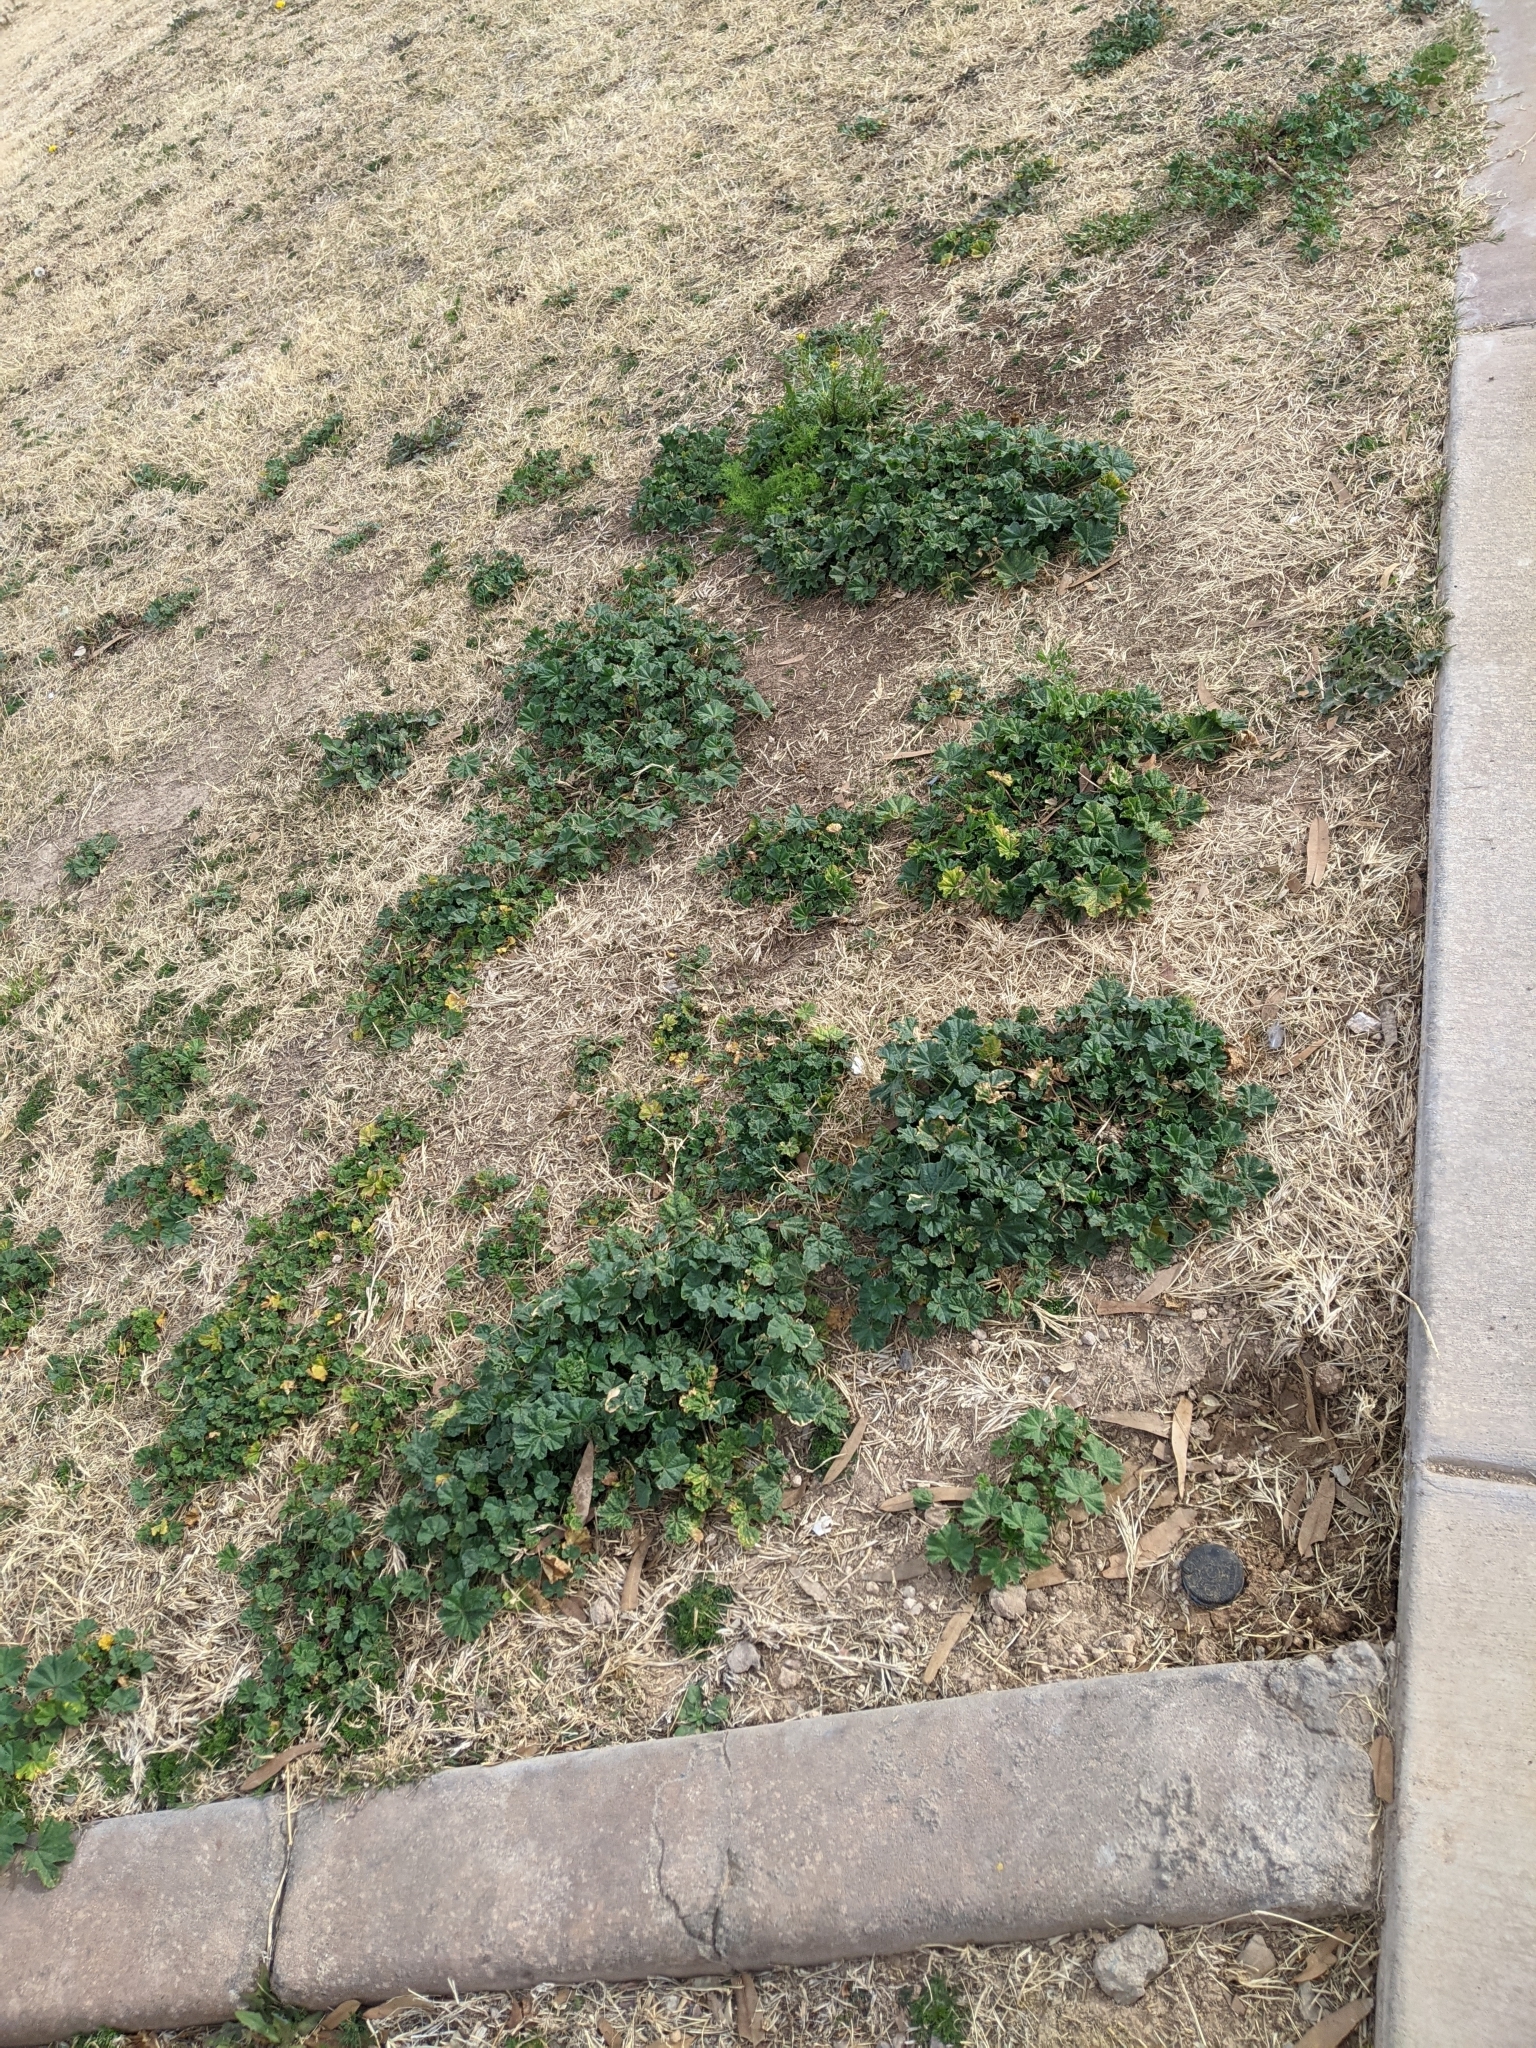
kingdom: Plantae
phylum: Tracheophyta
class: Magnoliopsida
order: Malvales
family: Malvaceae
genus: Malva
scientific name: Malva parviflora
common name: Least mallow
